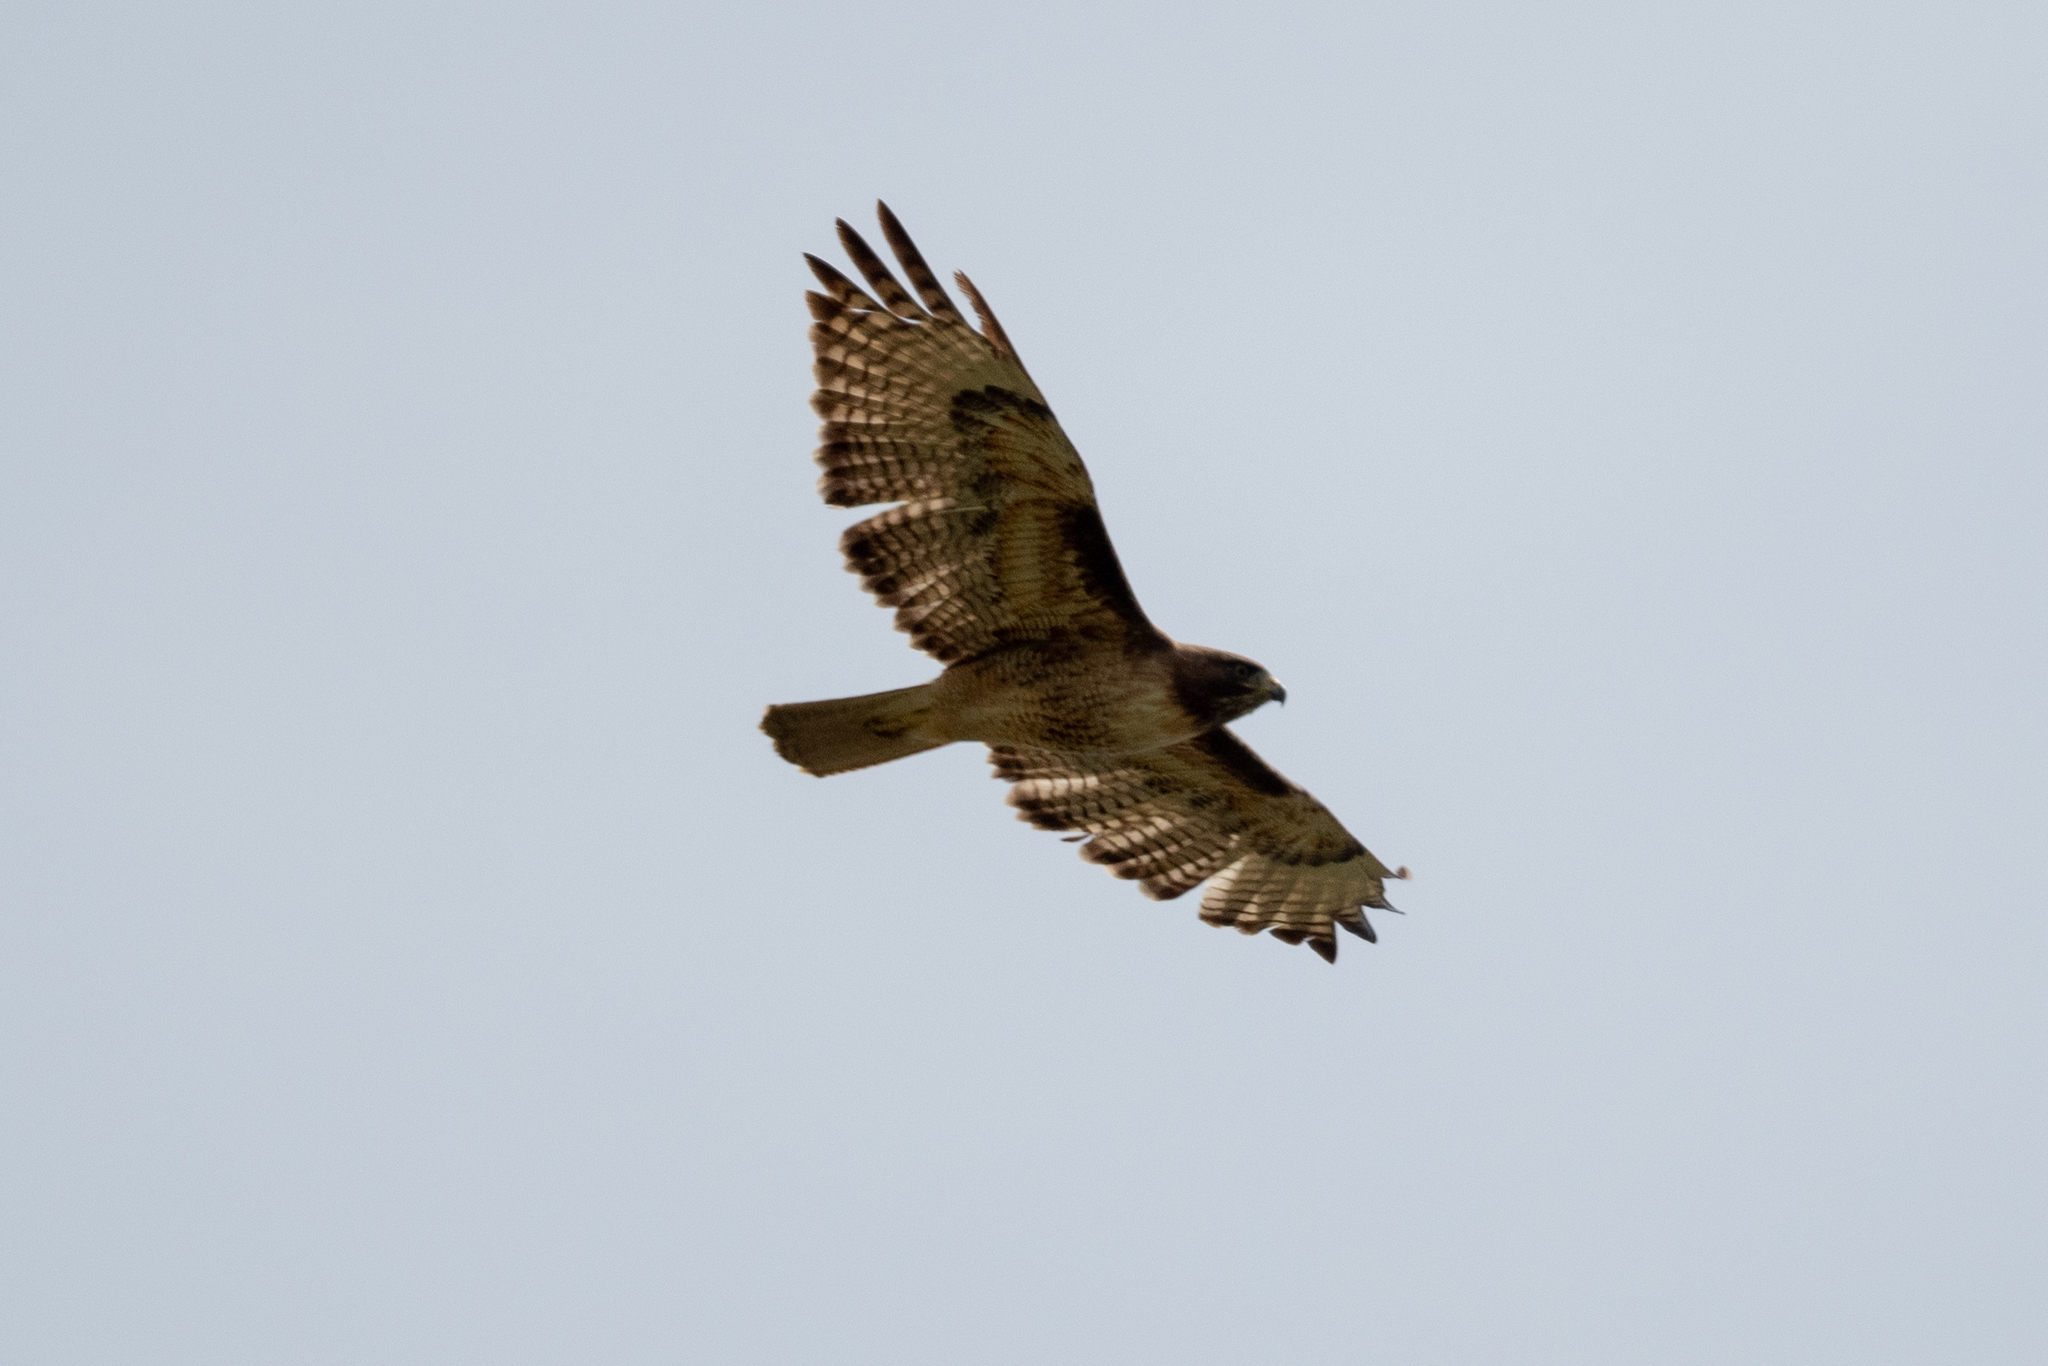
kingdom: Animalia
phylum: Chordata
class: Aves
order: Accipitriformes
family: Accipitridae
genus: Buteo
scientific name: Buteo jamaicensis
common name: Red-tailed hawk
